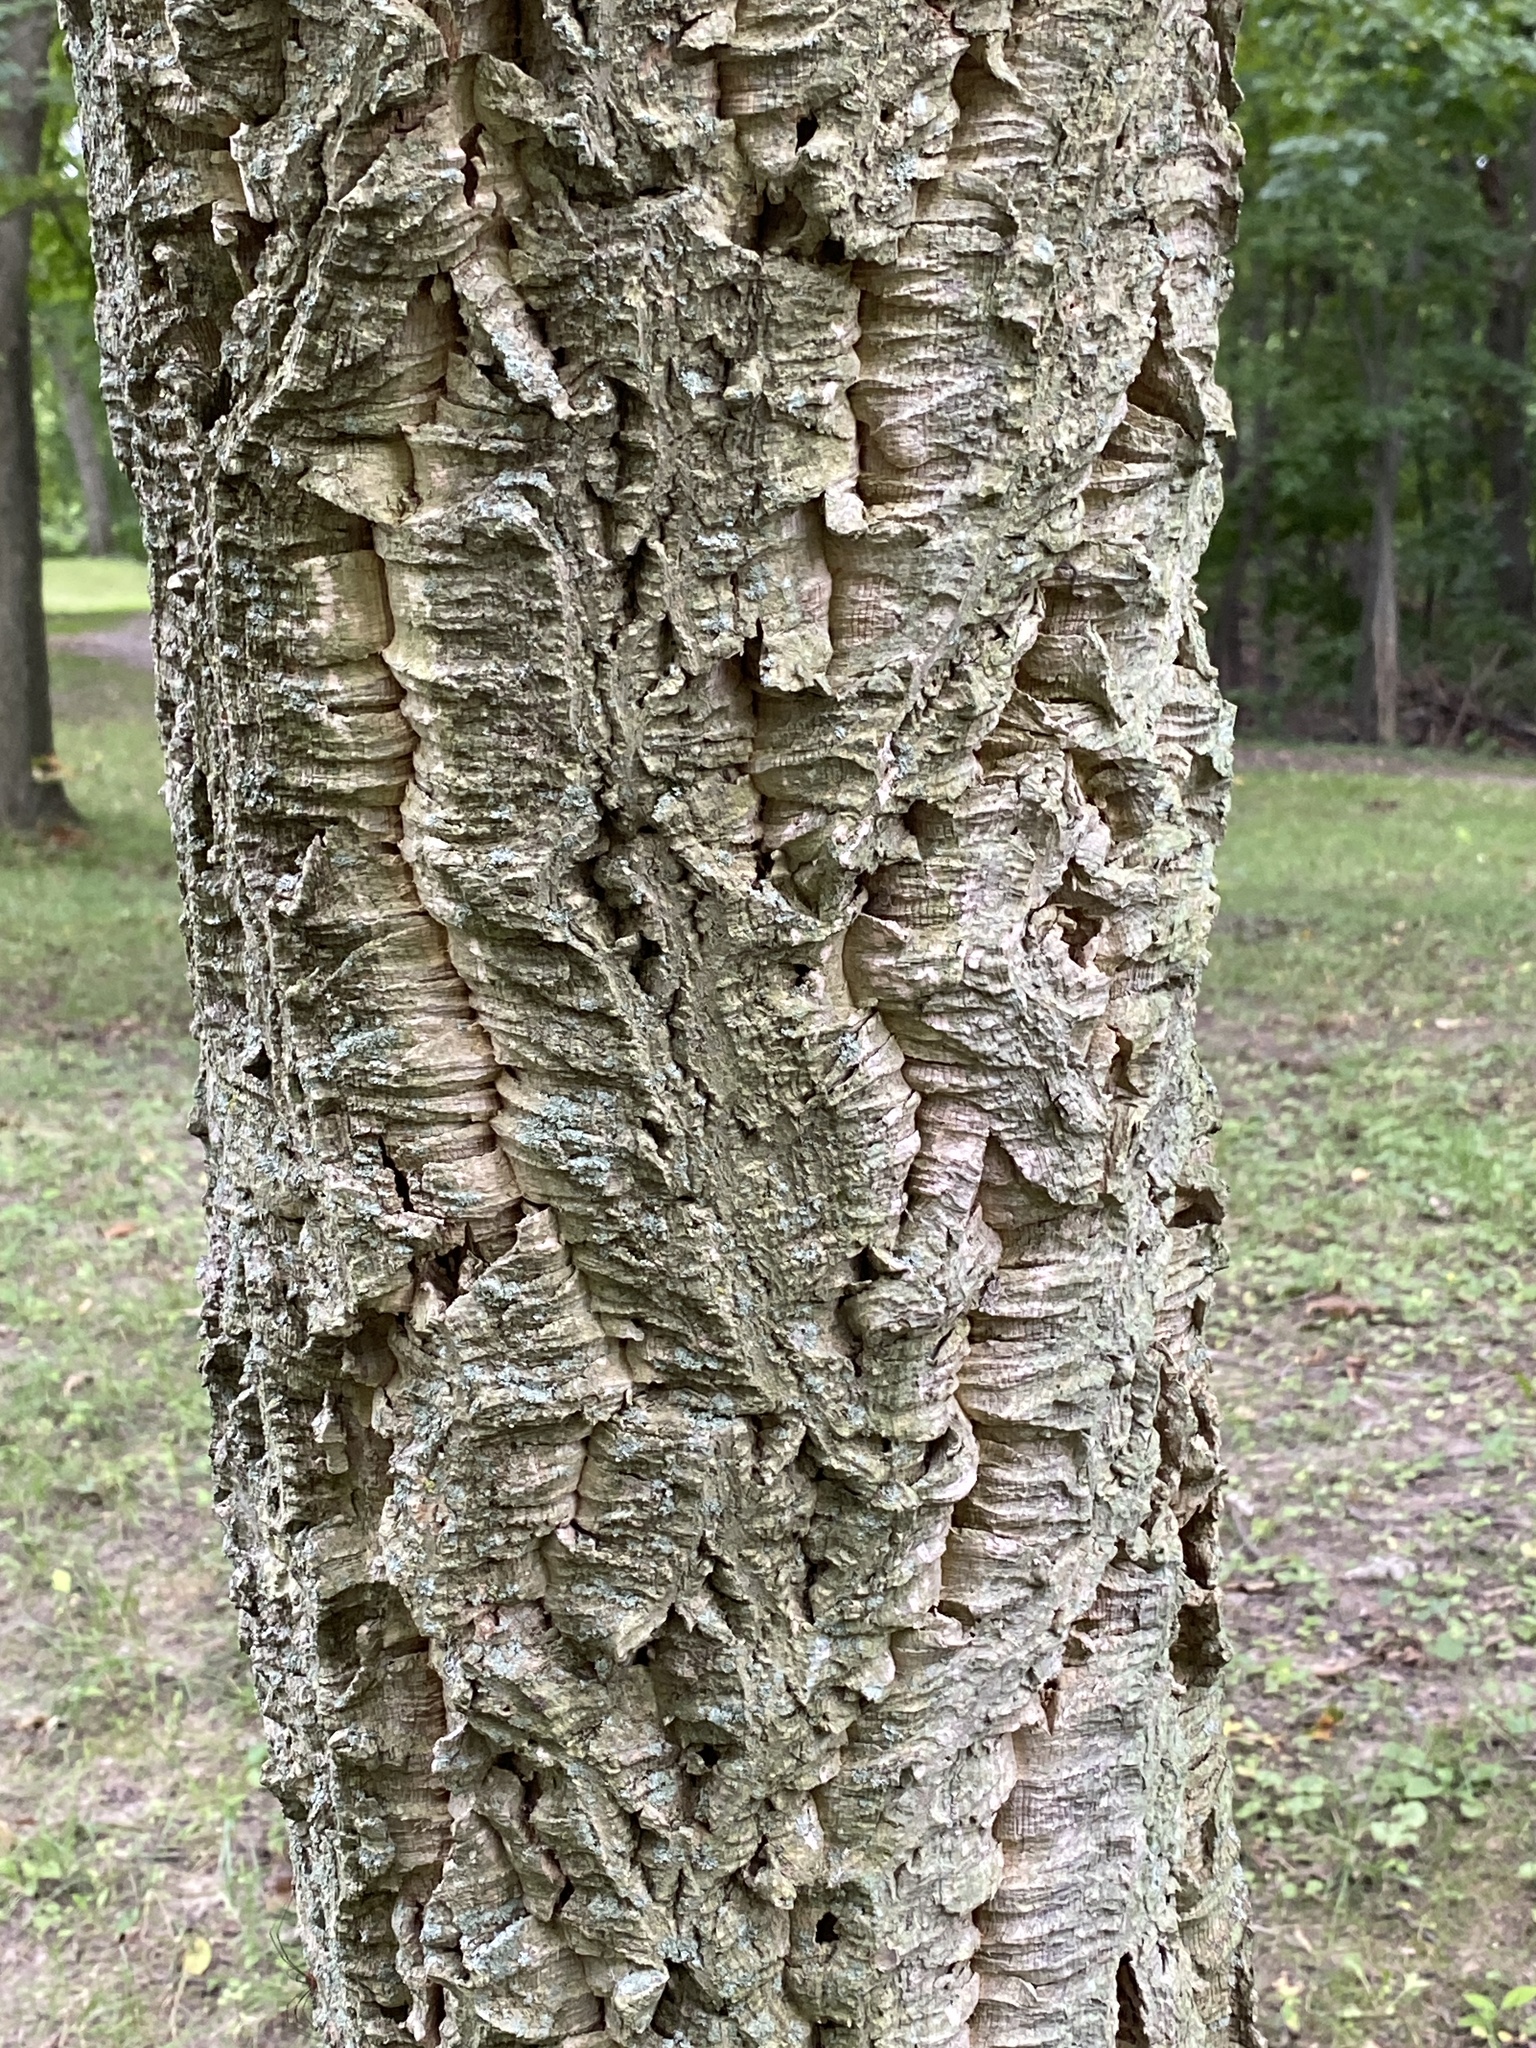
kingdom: Plantae
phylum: Tracheophyta
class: Magnoliopsida
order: Sapindales
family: Rutaceae
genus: Phellodendron
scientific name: Phellodendron amurense
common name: Amur corktree
